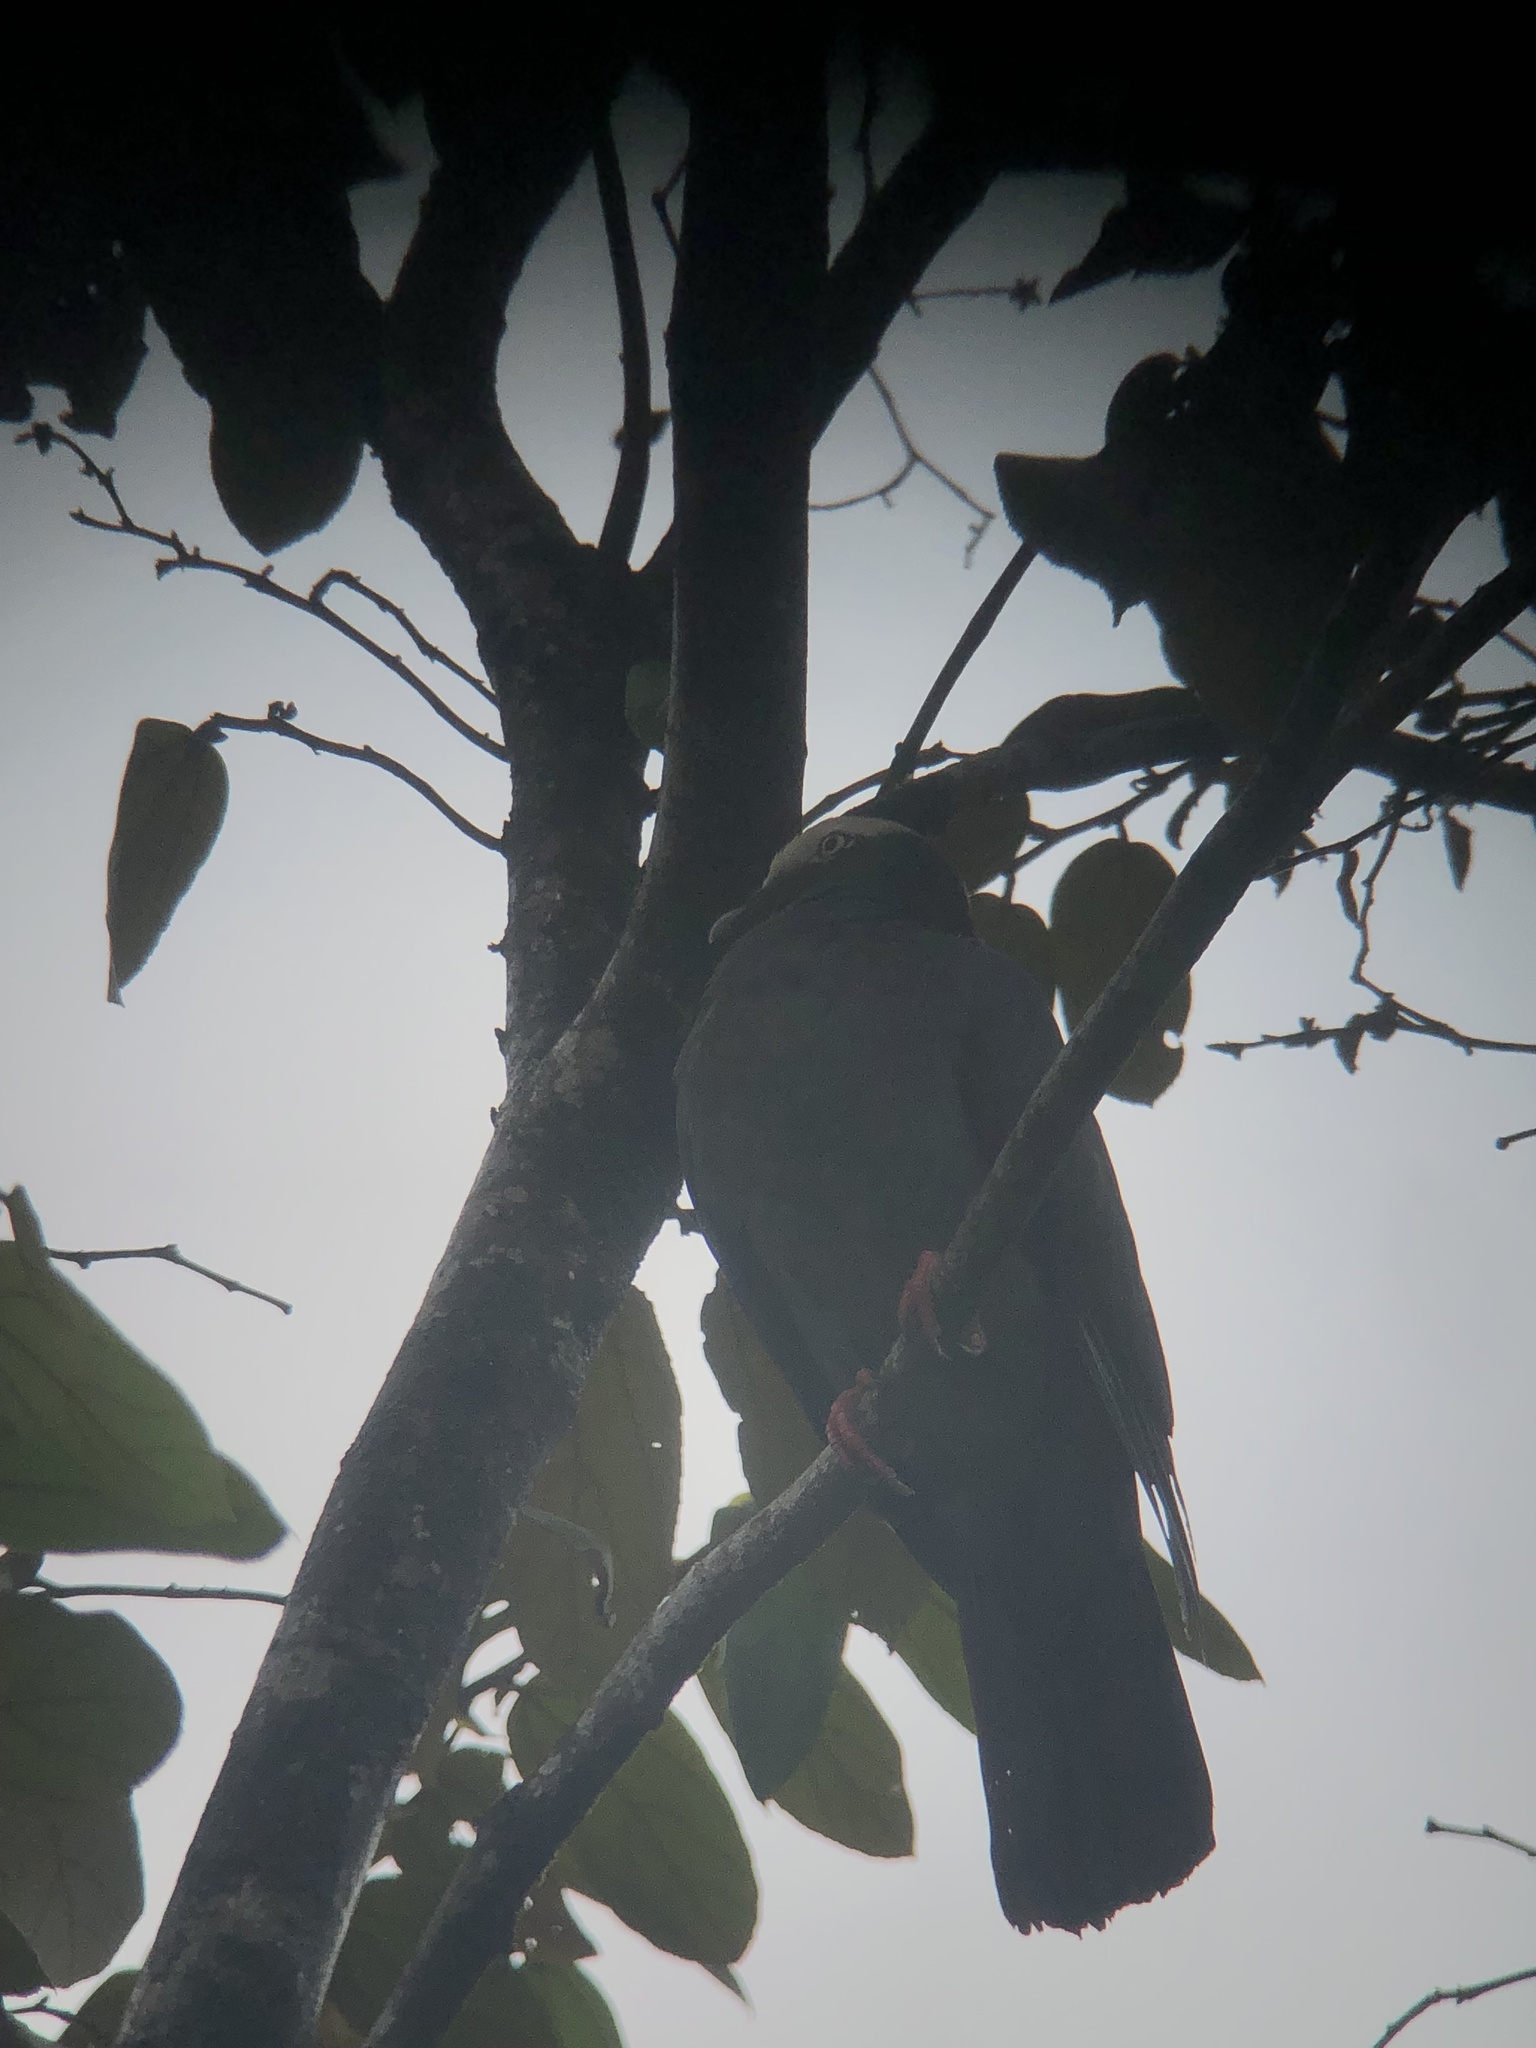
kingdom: Animalia
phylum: Chordata
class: Aves
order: Columbiformes
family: Columbidae
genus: Patagioenas
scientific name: Patagioenas leucocephala
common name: White-crowned pigeon
